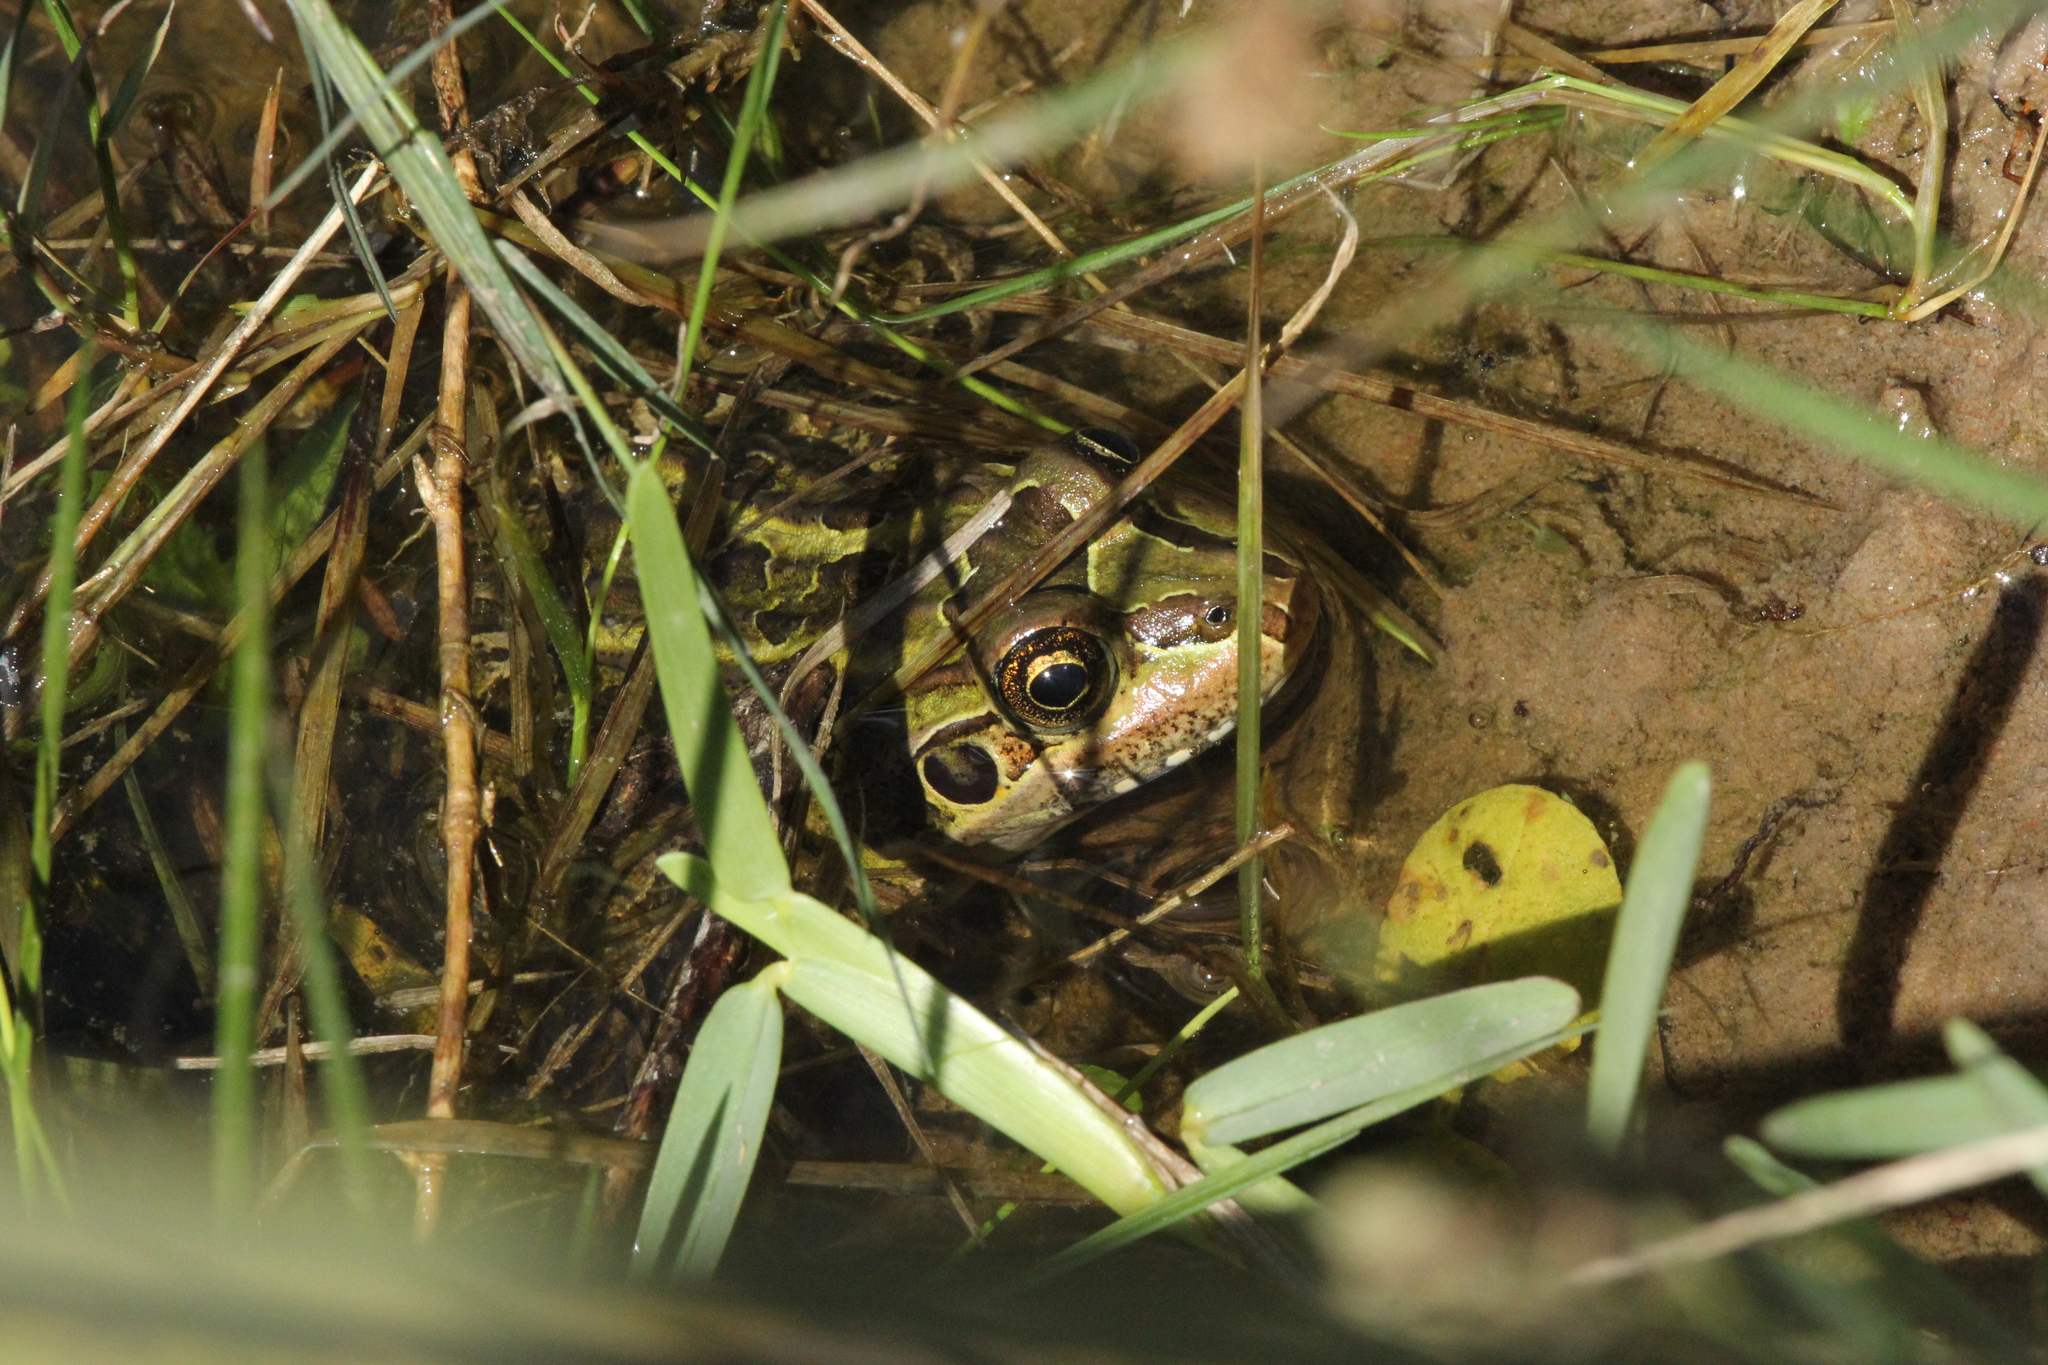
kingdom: Animalia
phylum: Chordata
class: Amphibia
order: Anura
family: Leptodactylidae
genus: Leptodactylus
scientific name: Leptodactylus luctator
